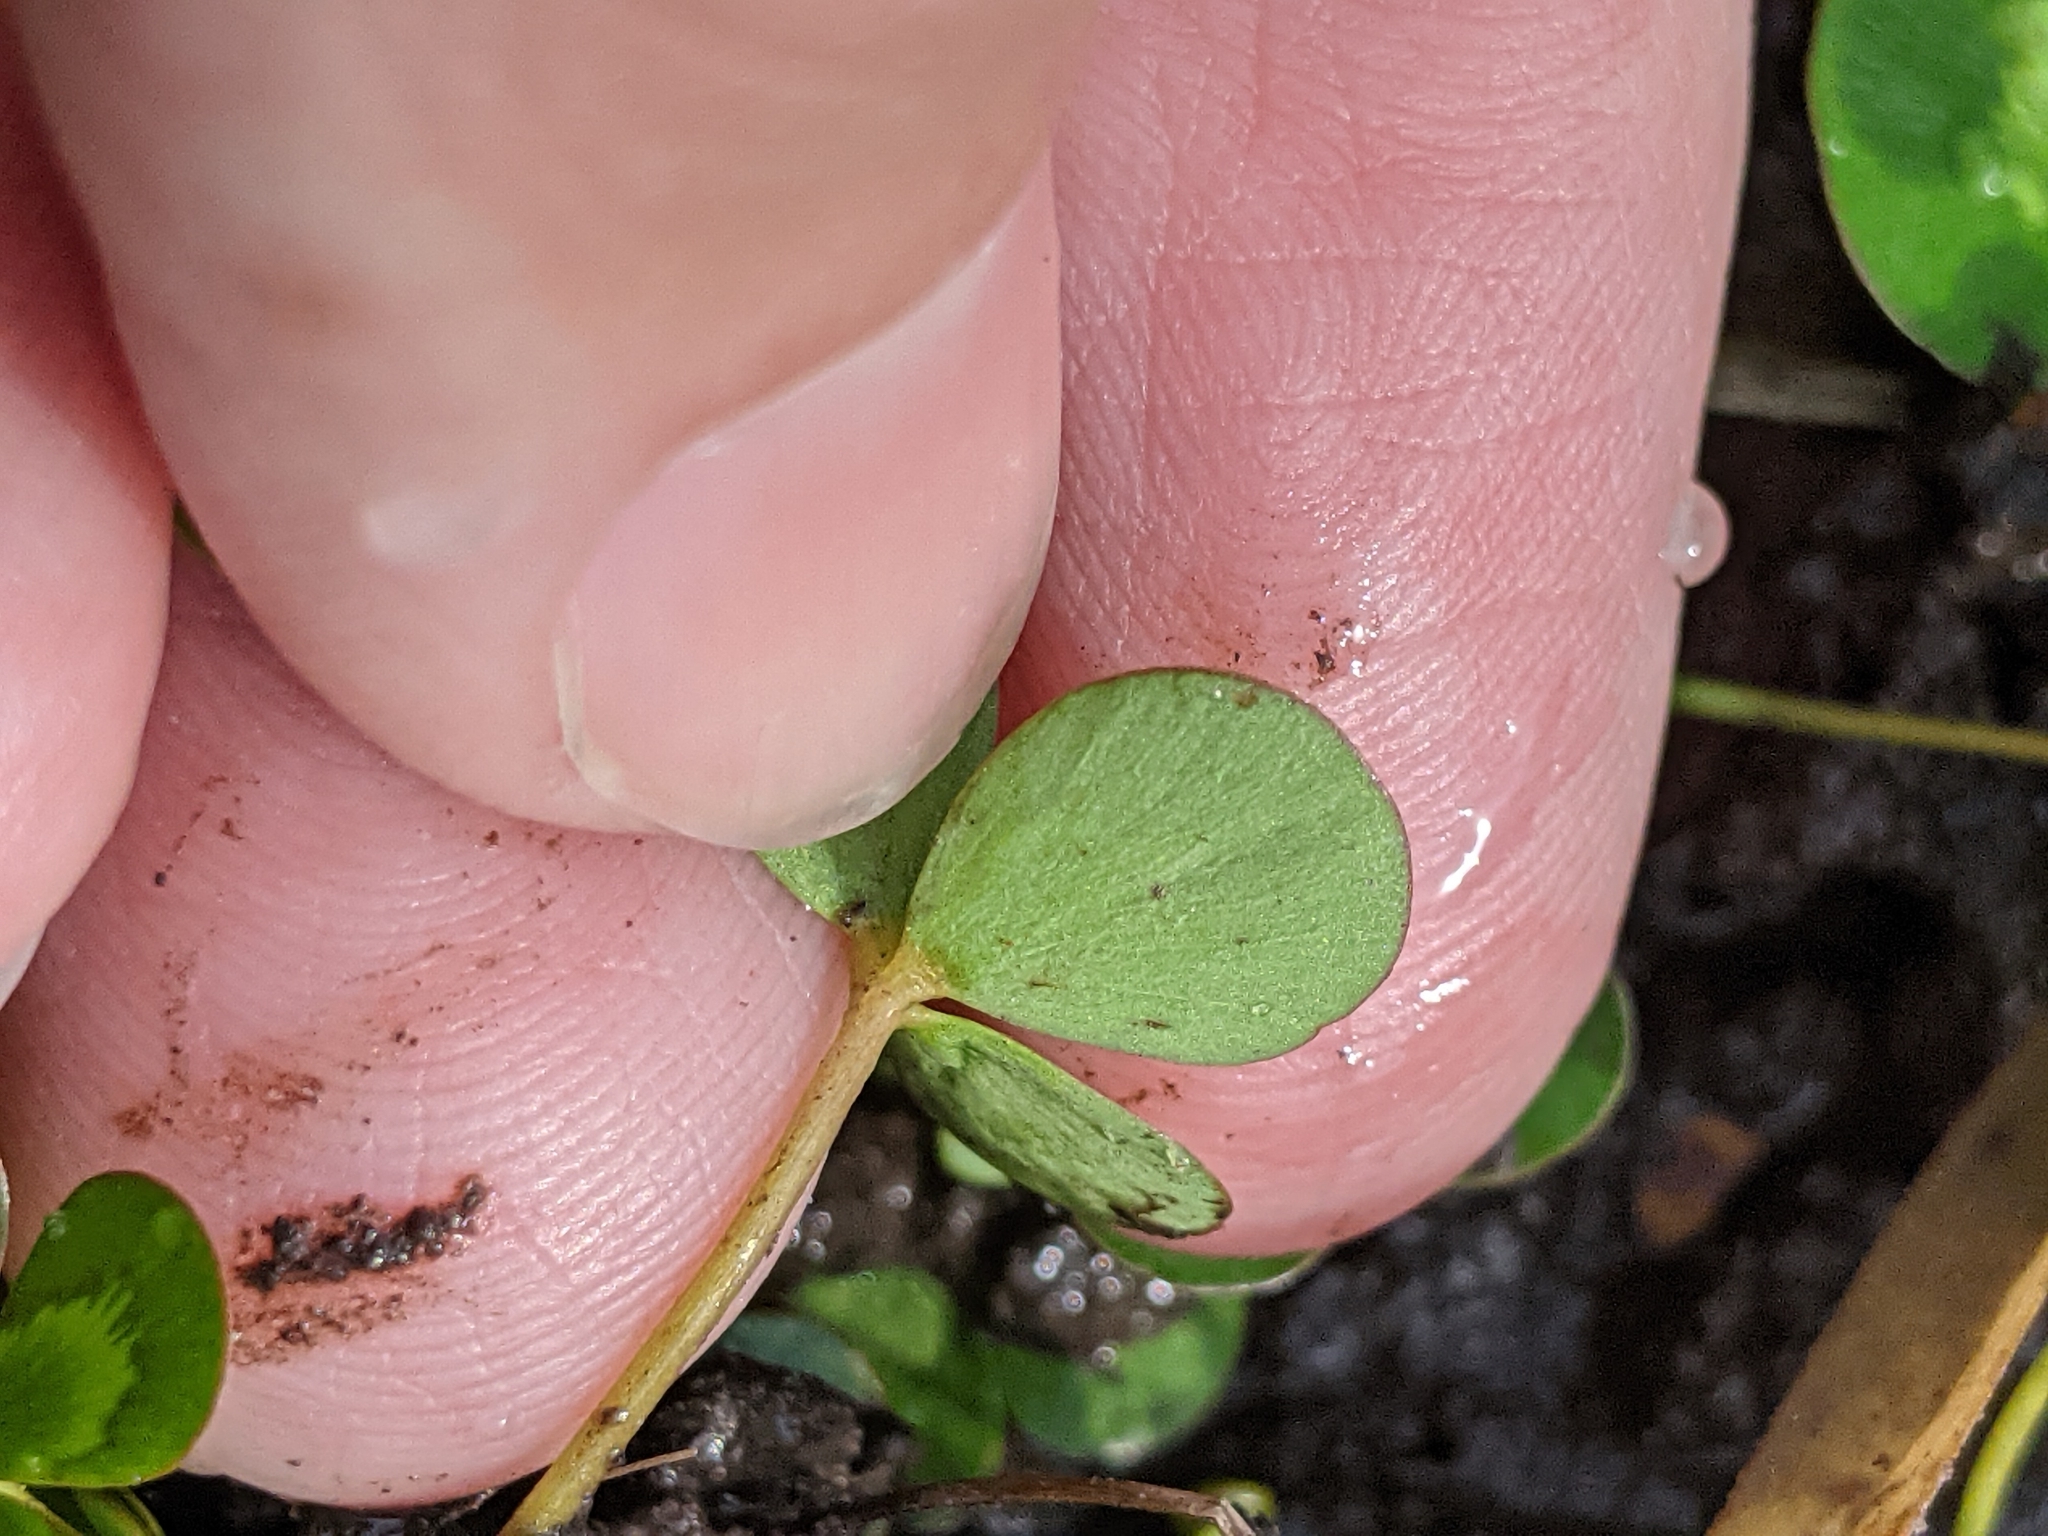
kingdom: Plantae
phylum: Tracheophyta
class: Polypodiopsida
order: Salviniales
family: Marsileaceae
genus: Marsilea
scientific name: Marsilea mutica
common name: Australian water-clover
